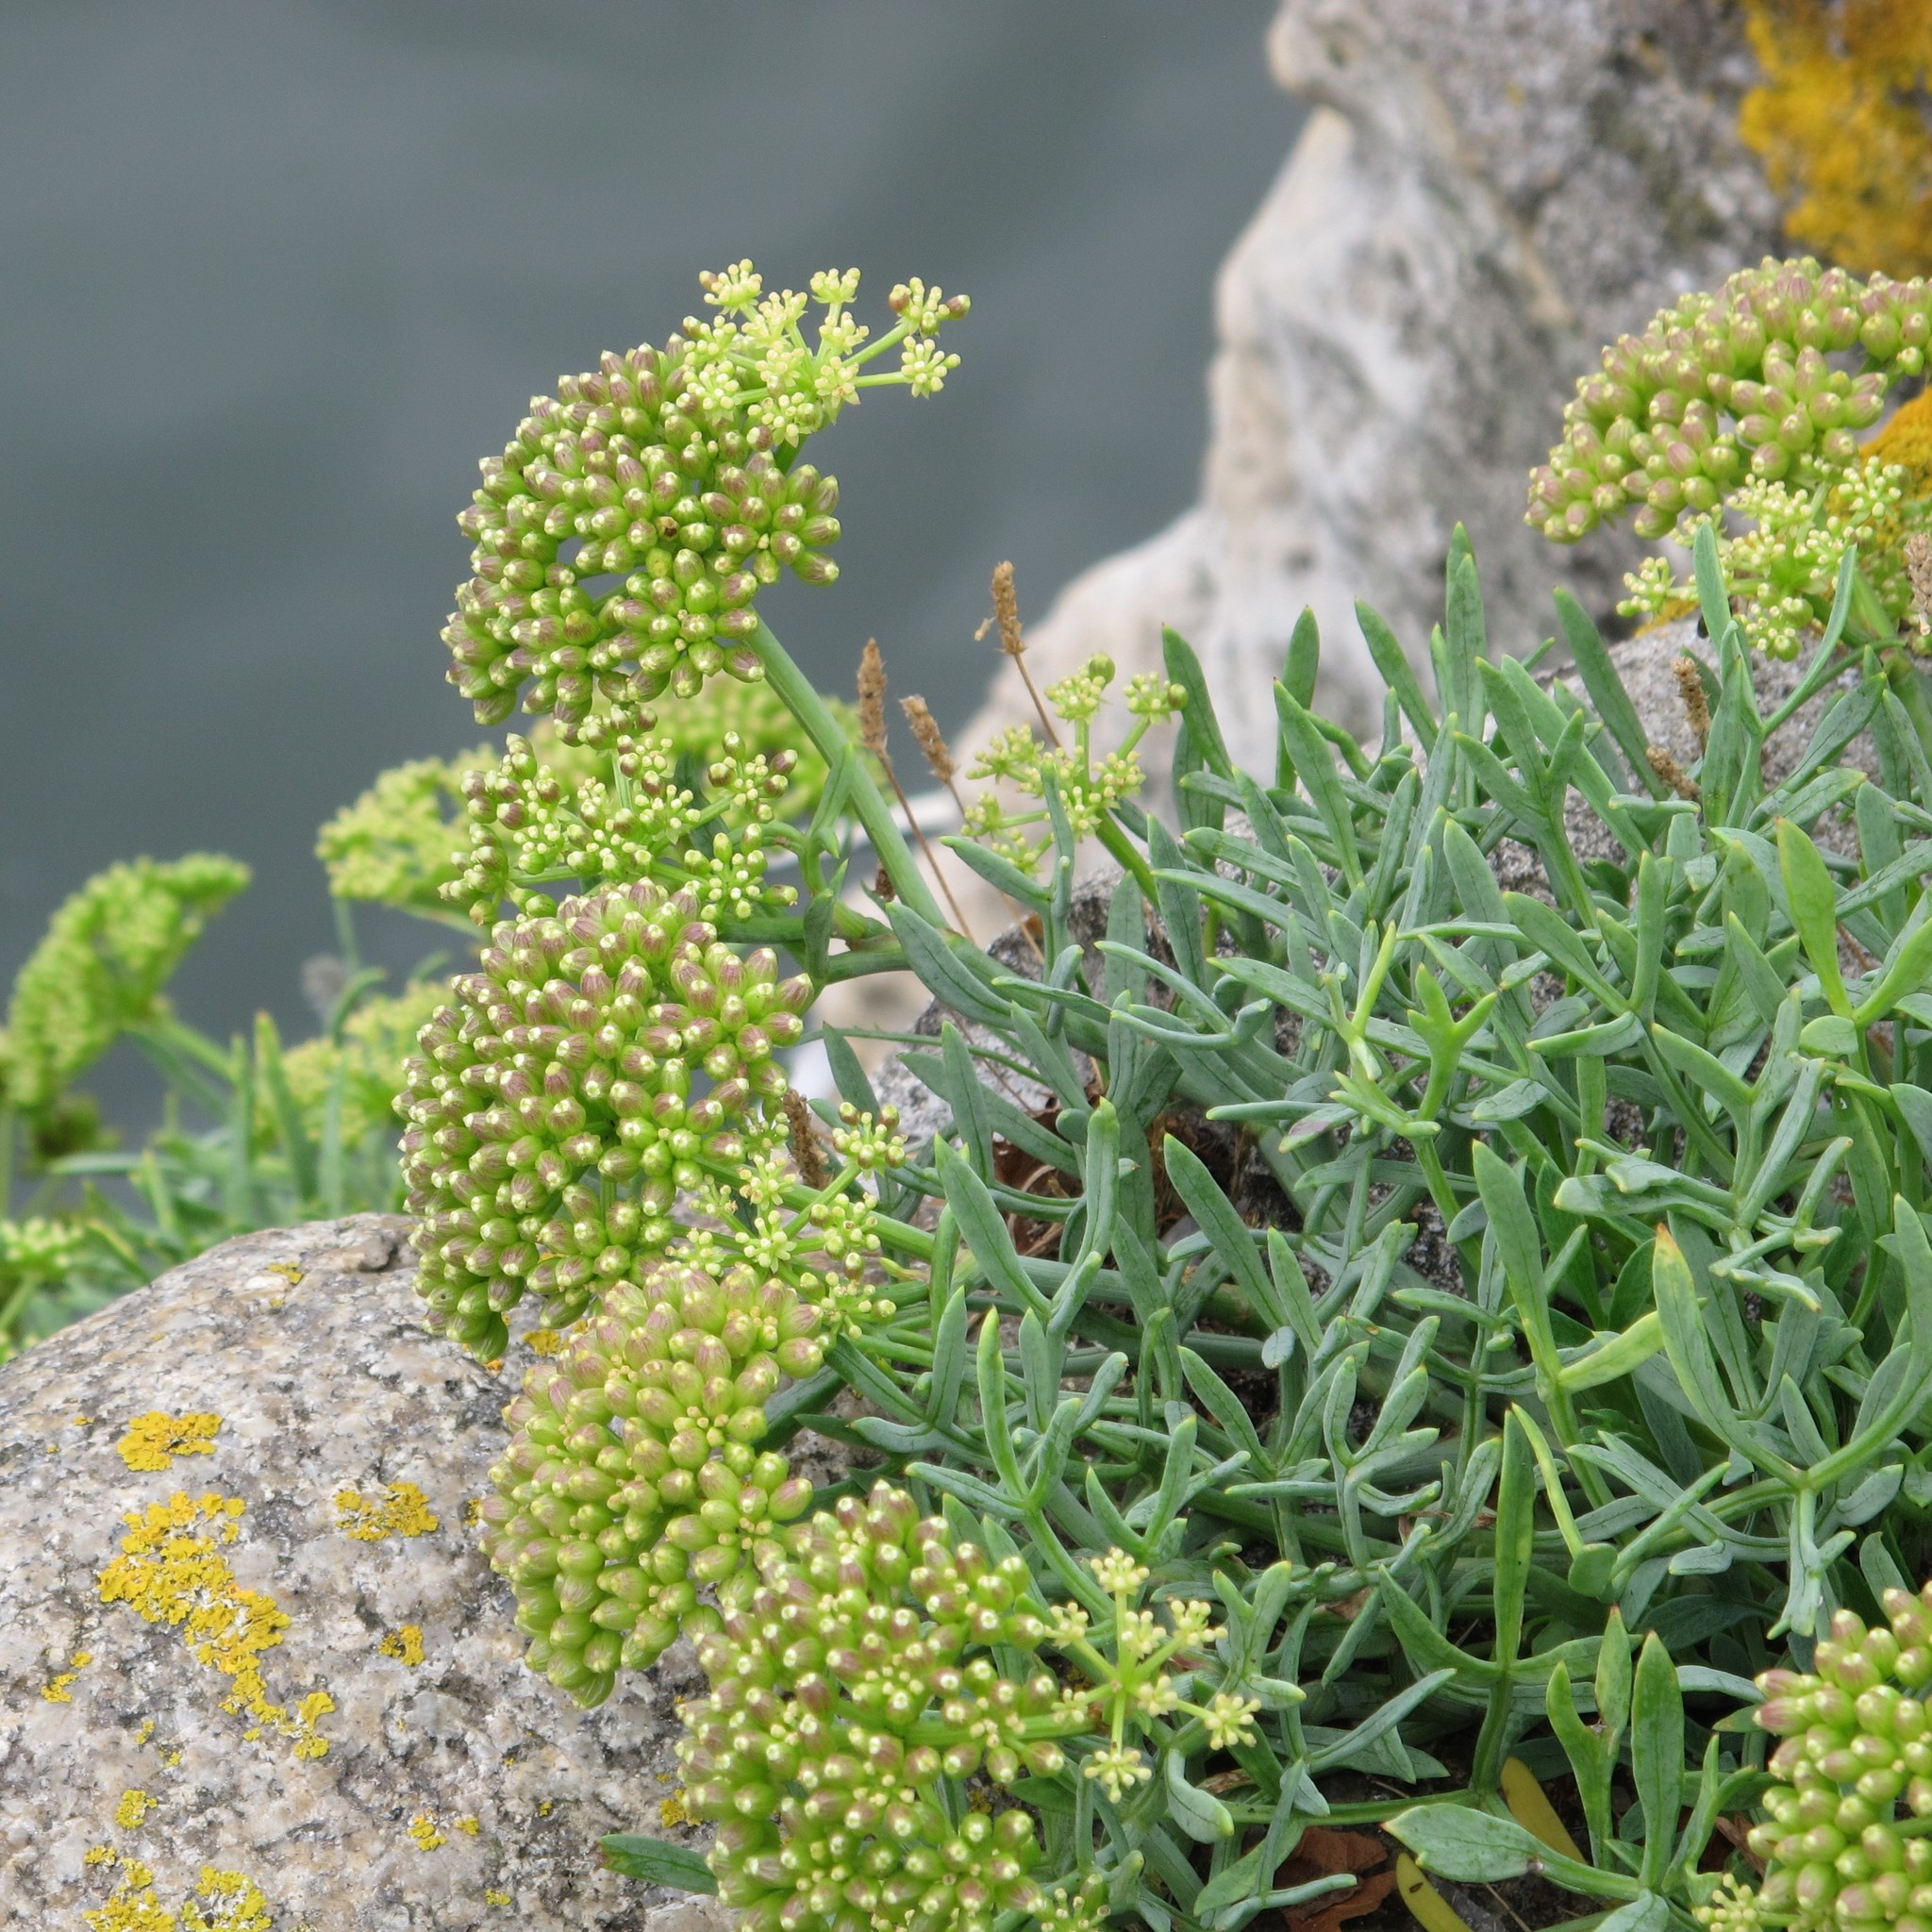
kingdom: Plantae
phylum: Tracheophyta
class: Magnoliopsida
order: Apiales
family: Apiaceae
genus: Crithmum
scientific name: Crithmum maritimum
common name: Rock samphire
